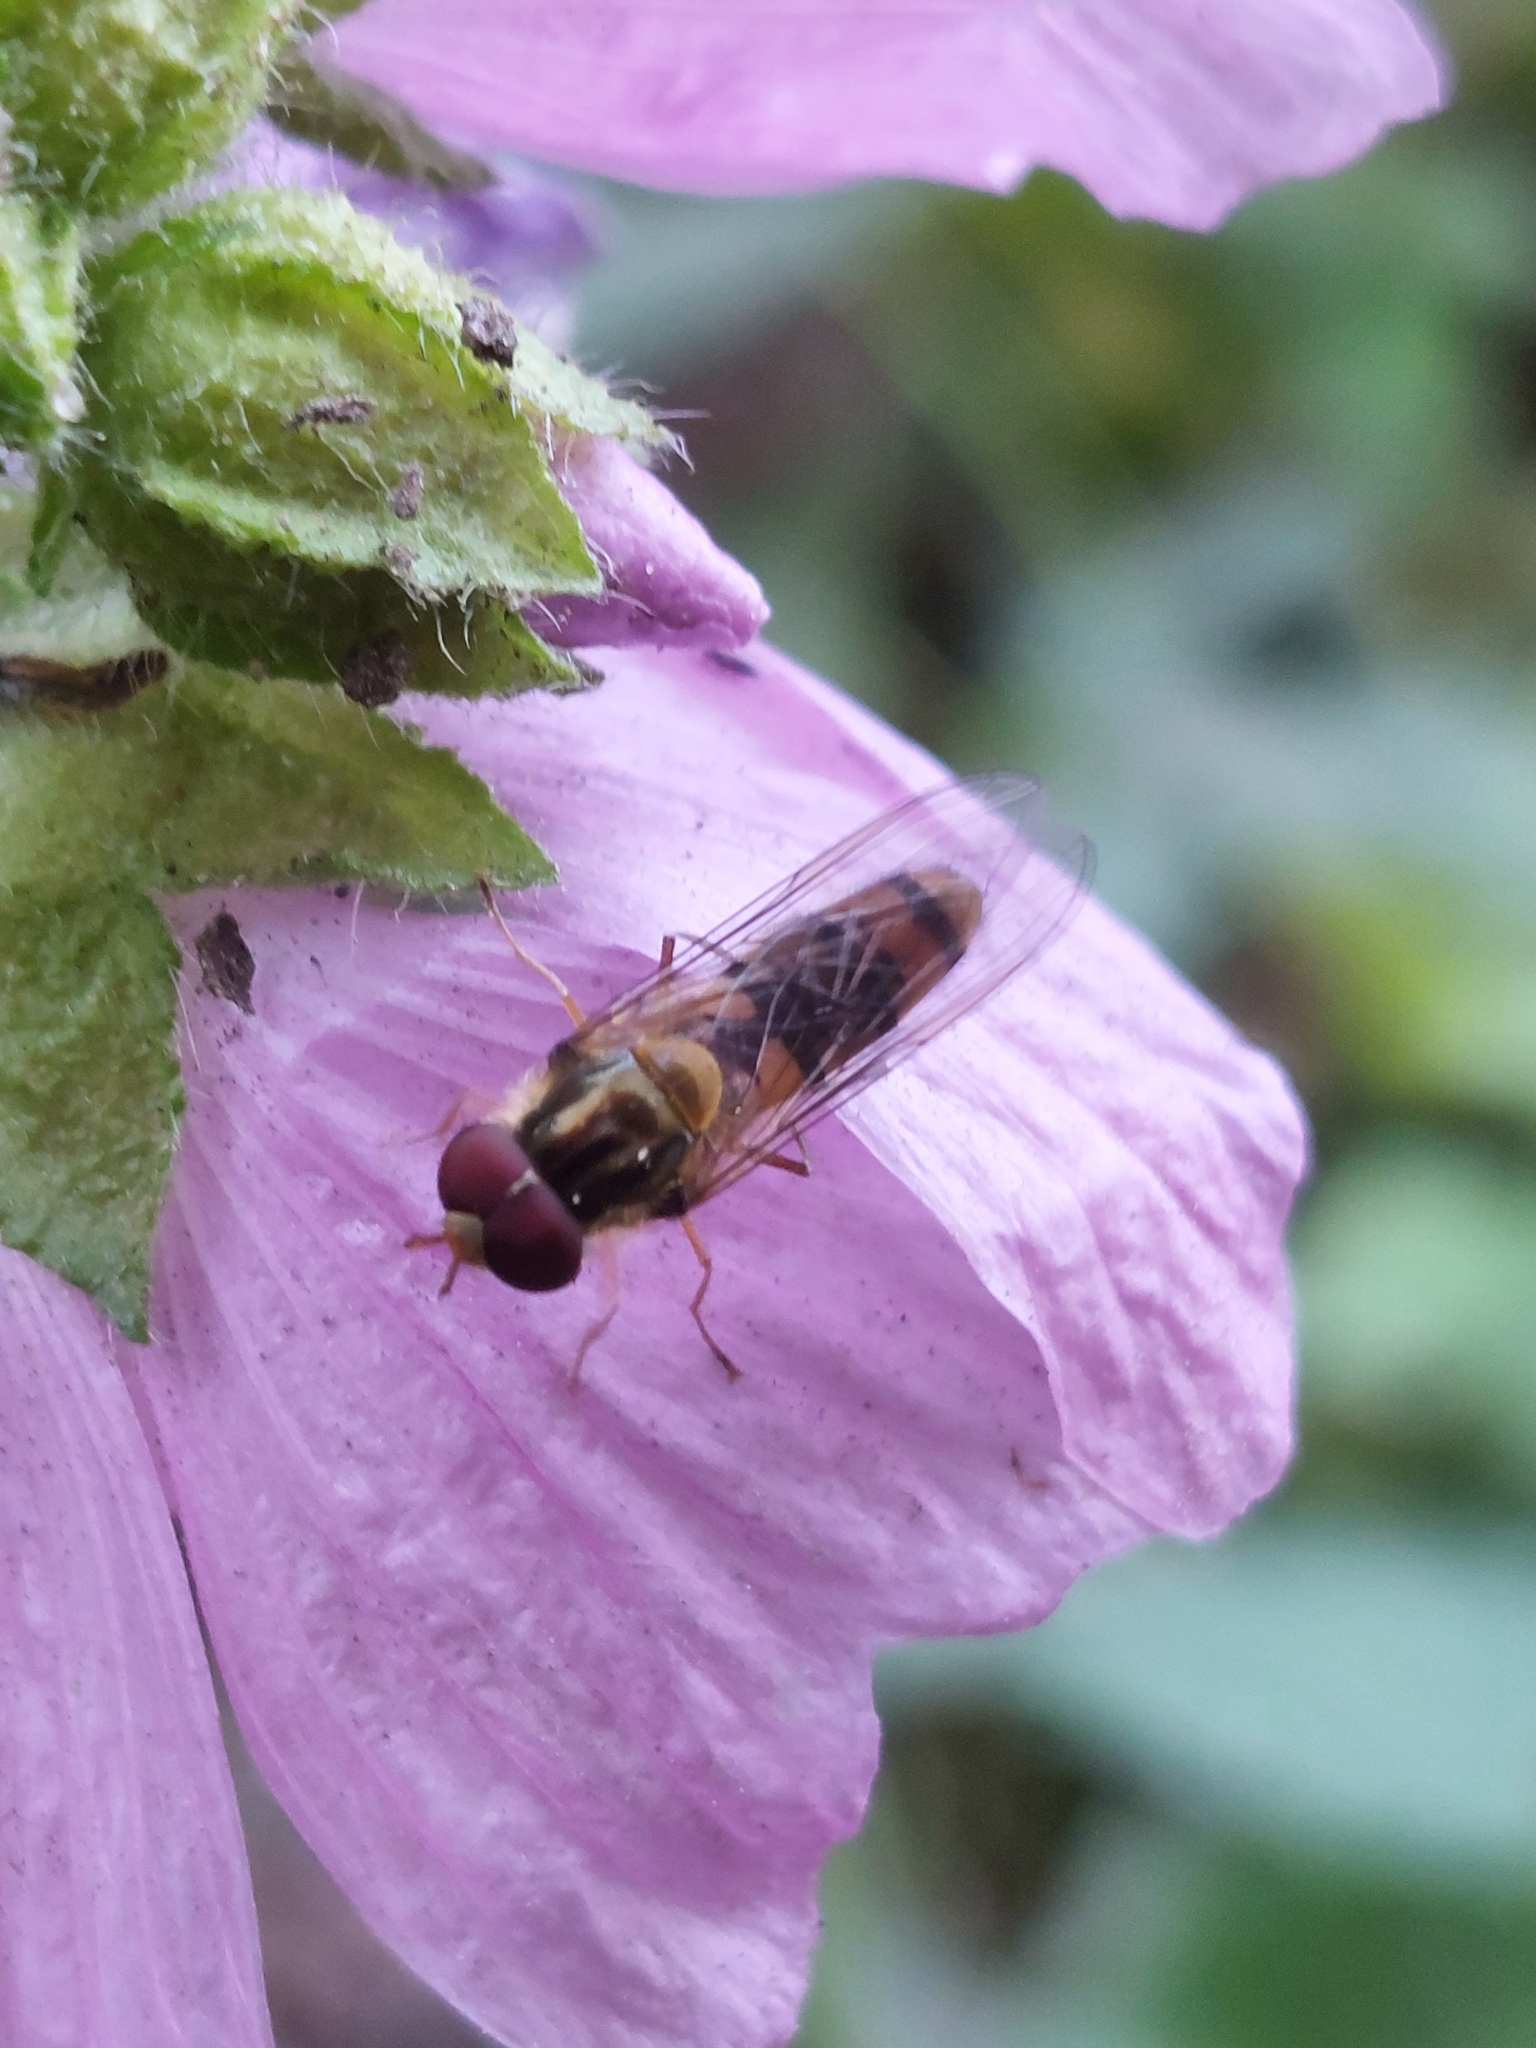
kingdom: Animalia
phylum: Arthropoda
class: Insecta
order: Diptera
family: Syrphidae
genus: Episyrphus
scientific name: Episyrphus balteatus
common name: Marmalade hoverfly
